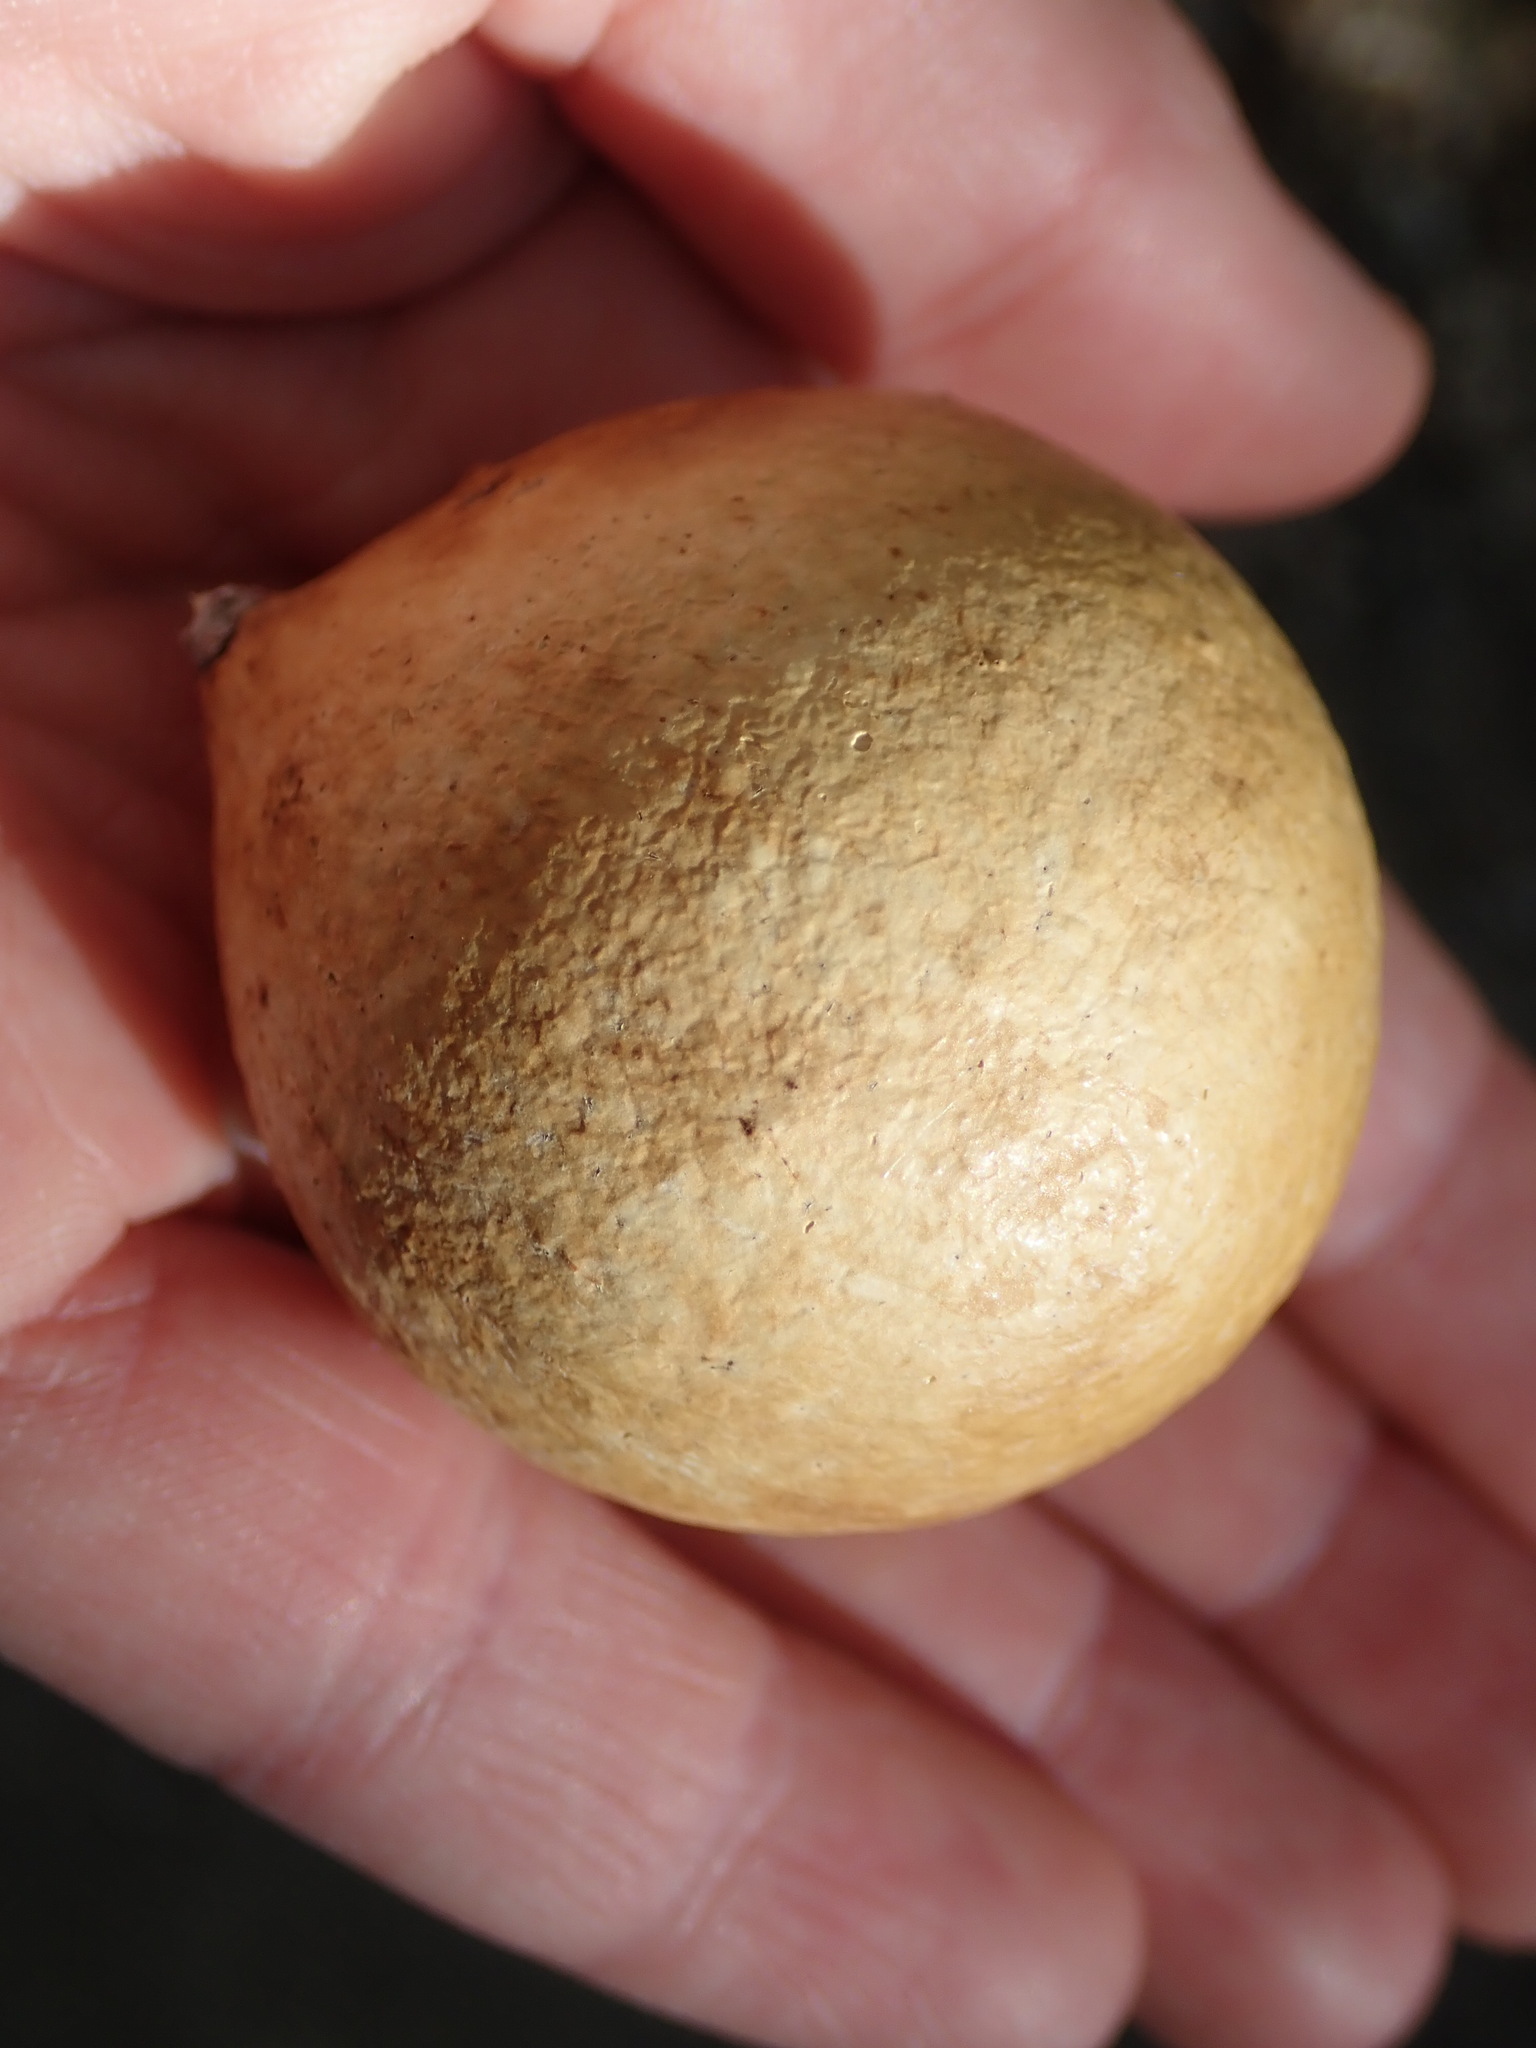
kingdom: Animalia
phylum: Arthropoda
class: Insecta
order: Hymenoptera
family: Cynipidae
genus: Amphibolips
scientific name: Amphibolips
